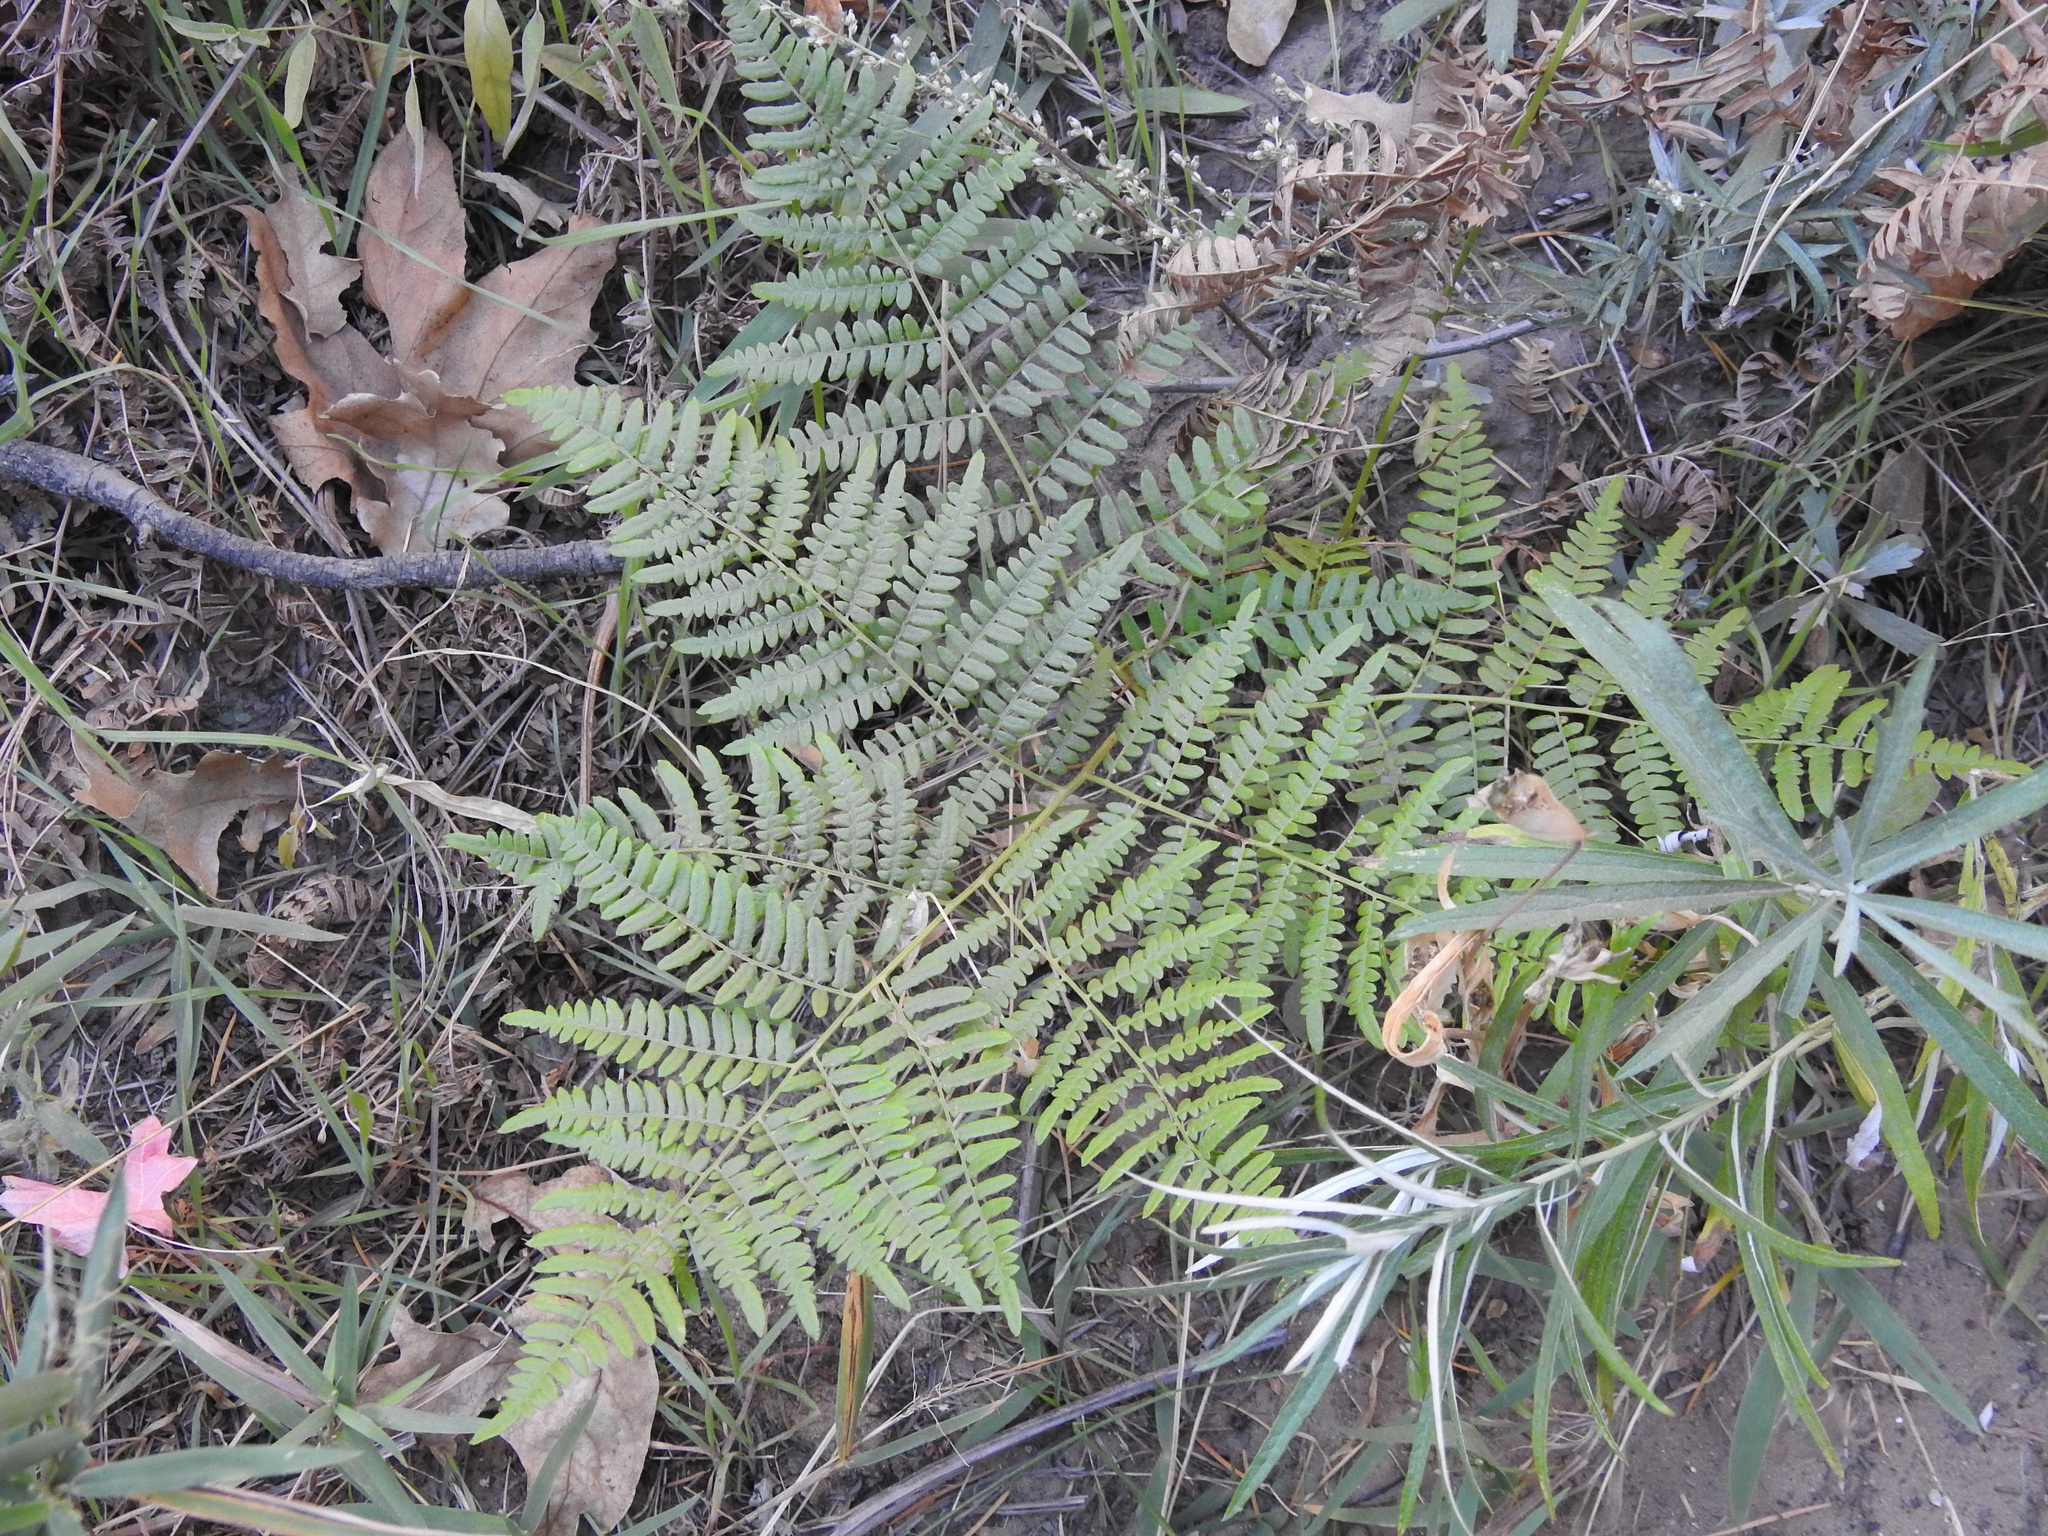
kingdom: Plantae
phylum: Tracheophyta
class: Polypodiopsida
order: Polypodiales
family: Dennstaedtiaceae
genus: Pteridium
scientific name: Pteridium aquilinum
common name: Bracken
